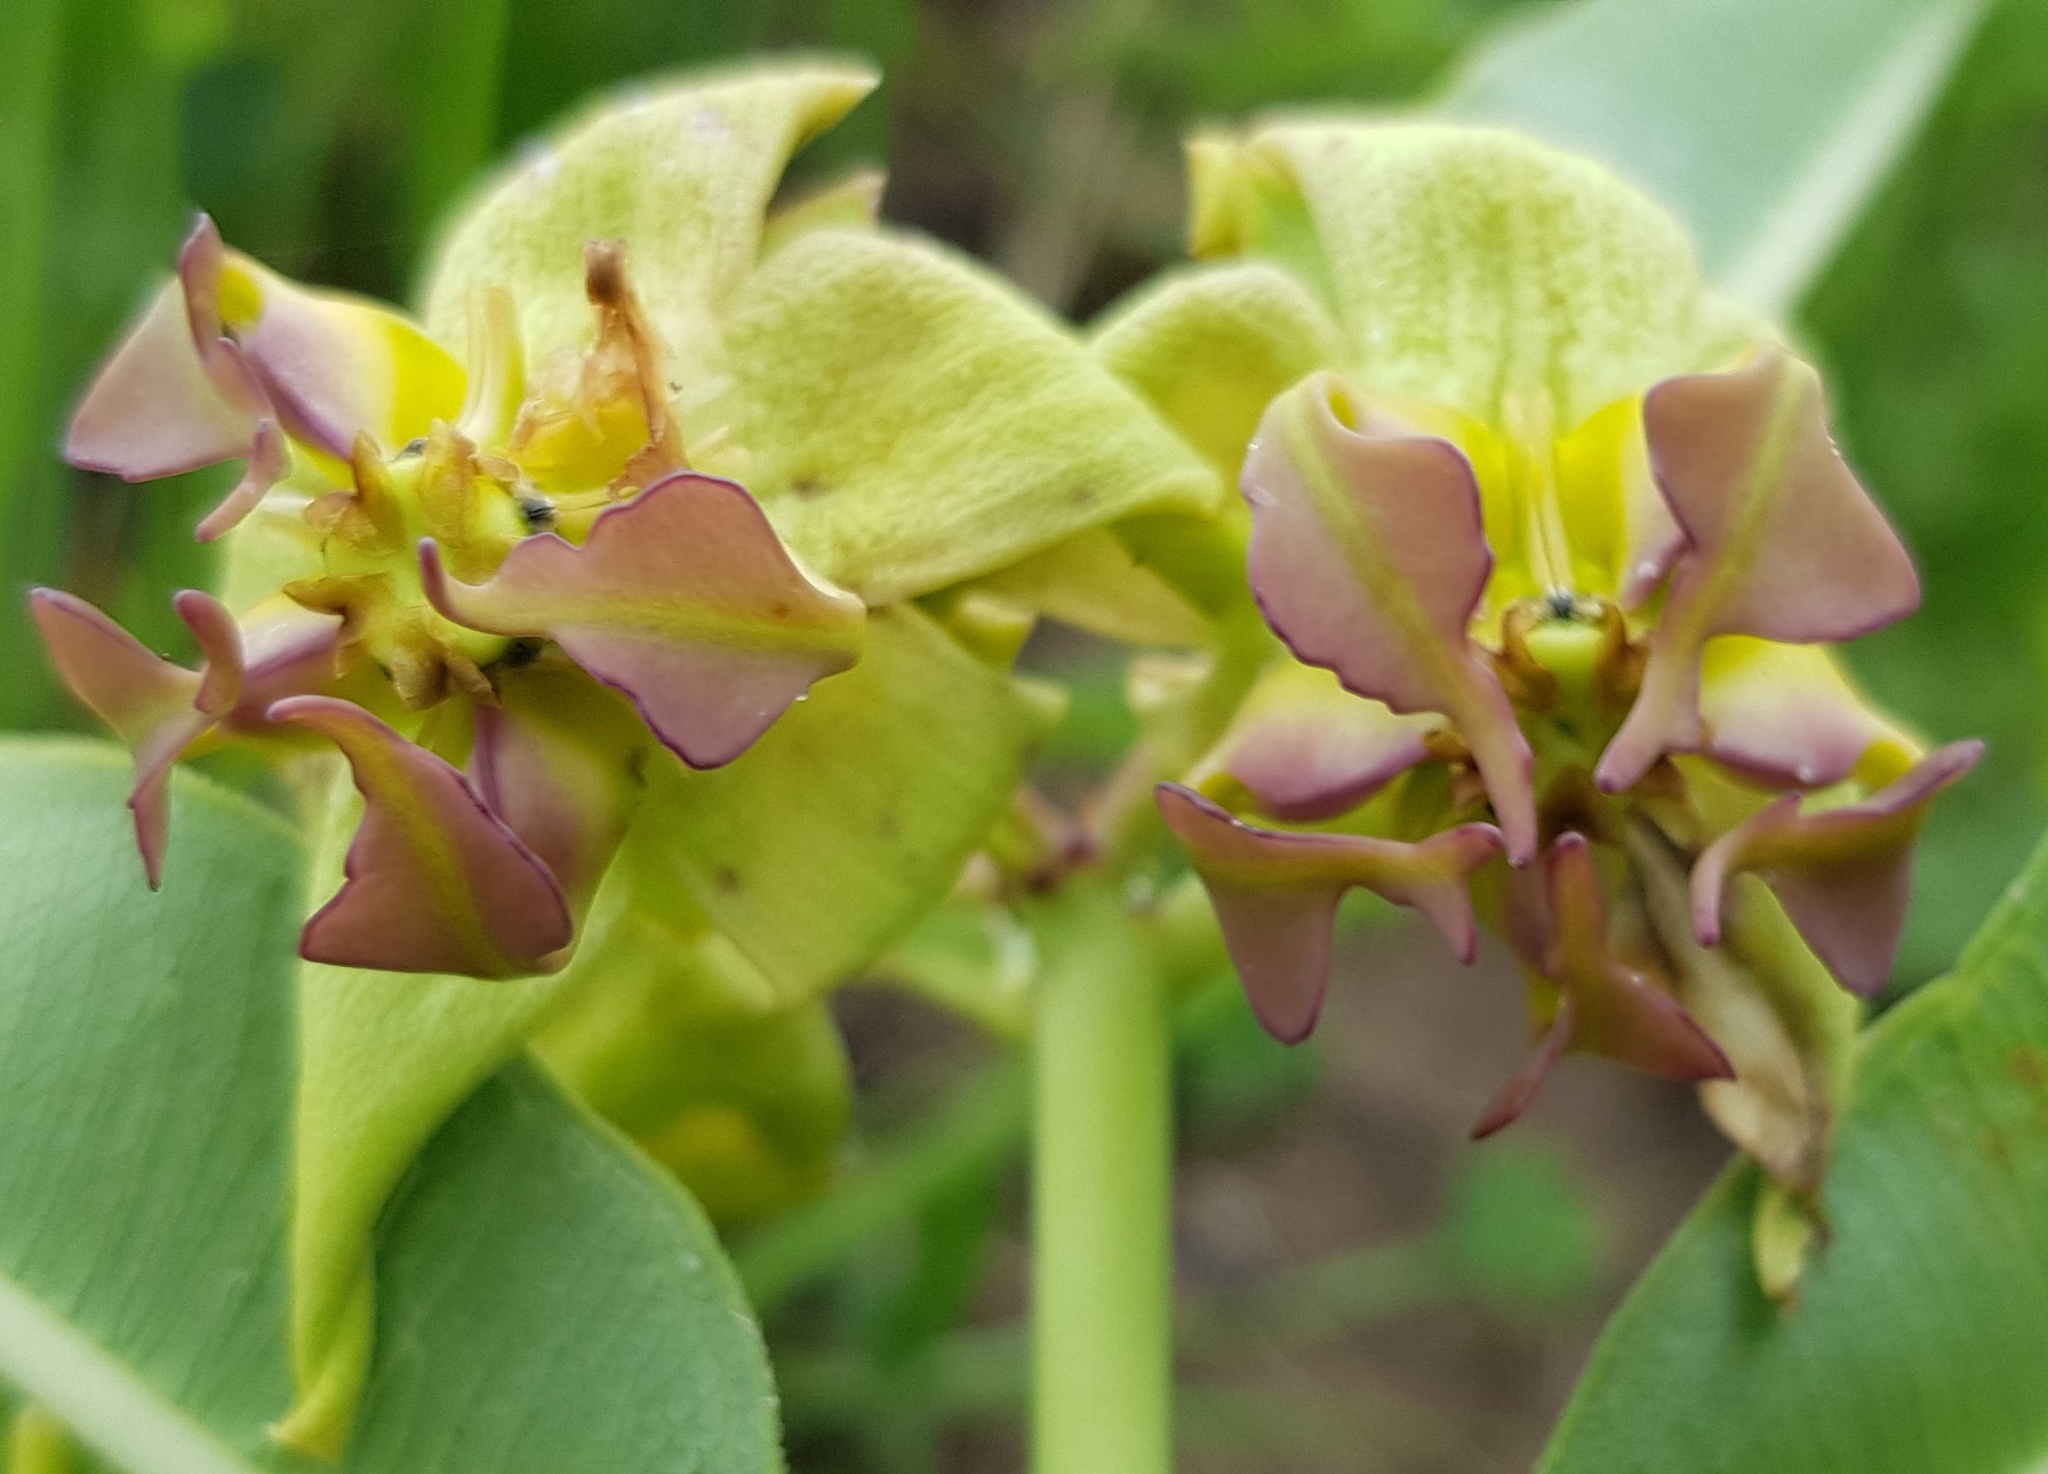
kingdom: Plantae
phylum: Tracheophyta
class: Magnoliopsida
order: Gentianales
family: Apocynaceae
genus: Pachycarpus
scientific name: Pachycarpus appendiculatus
